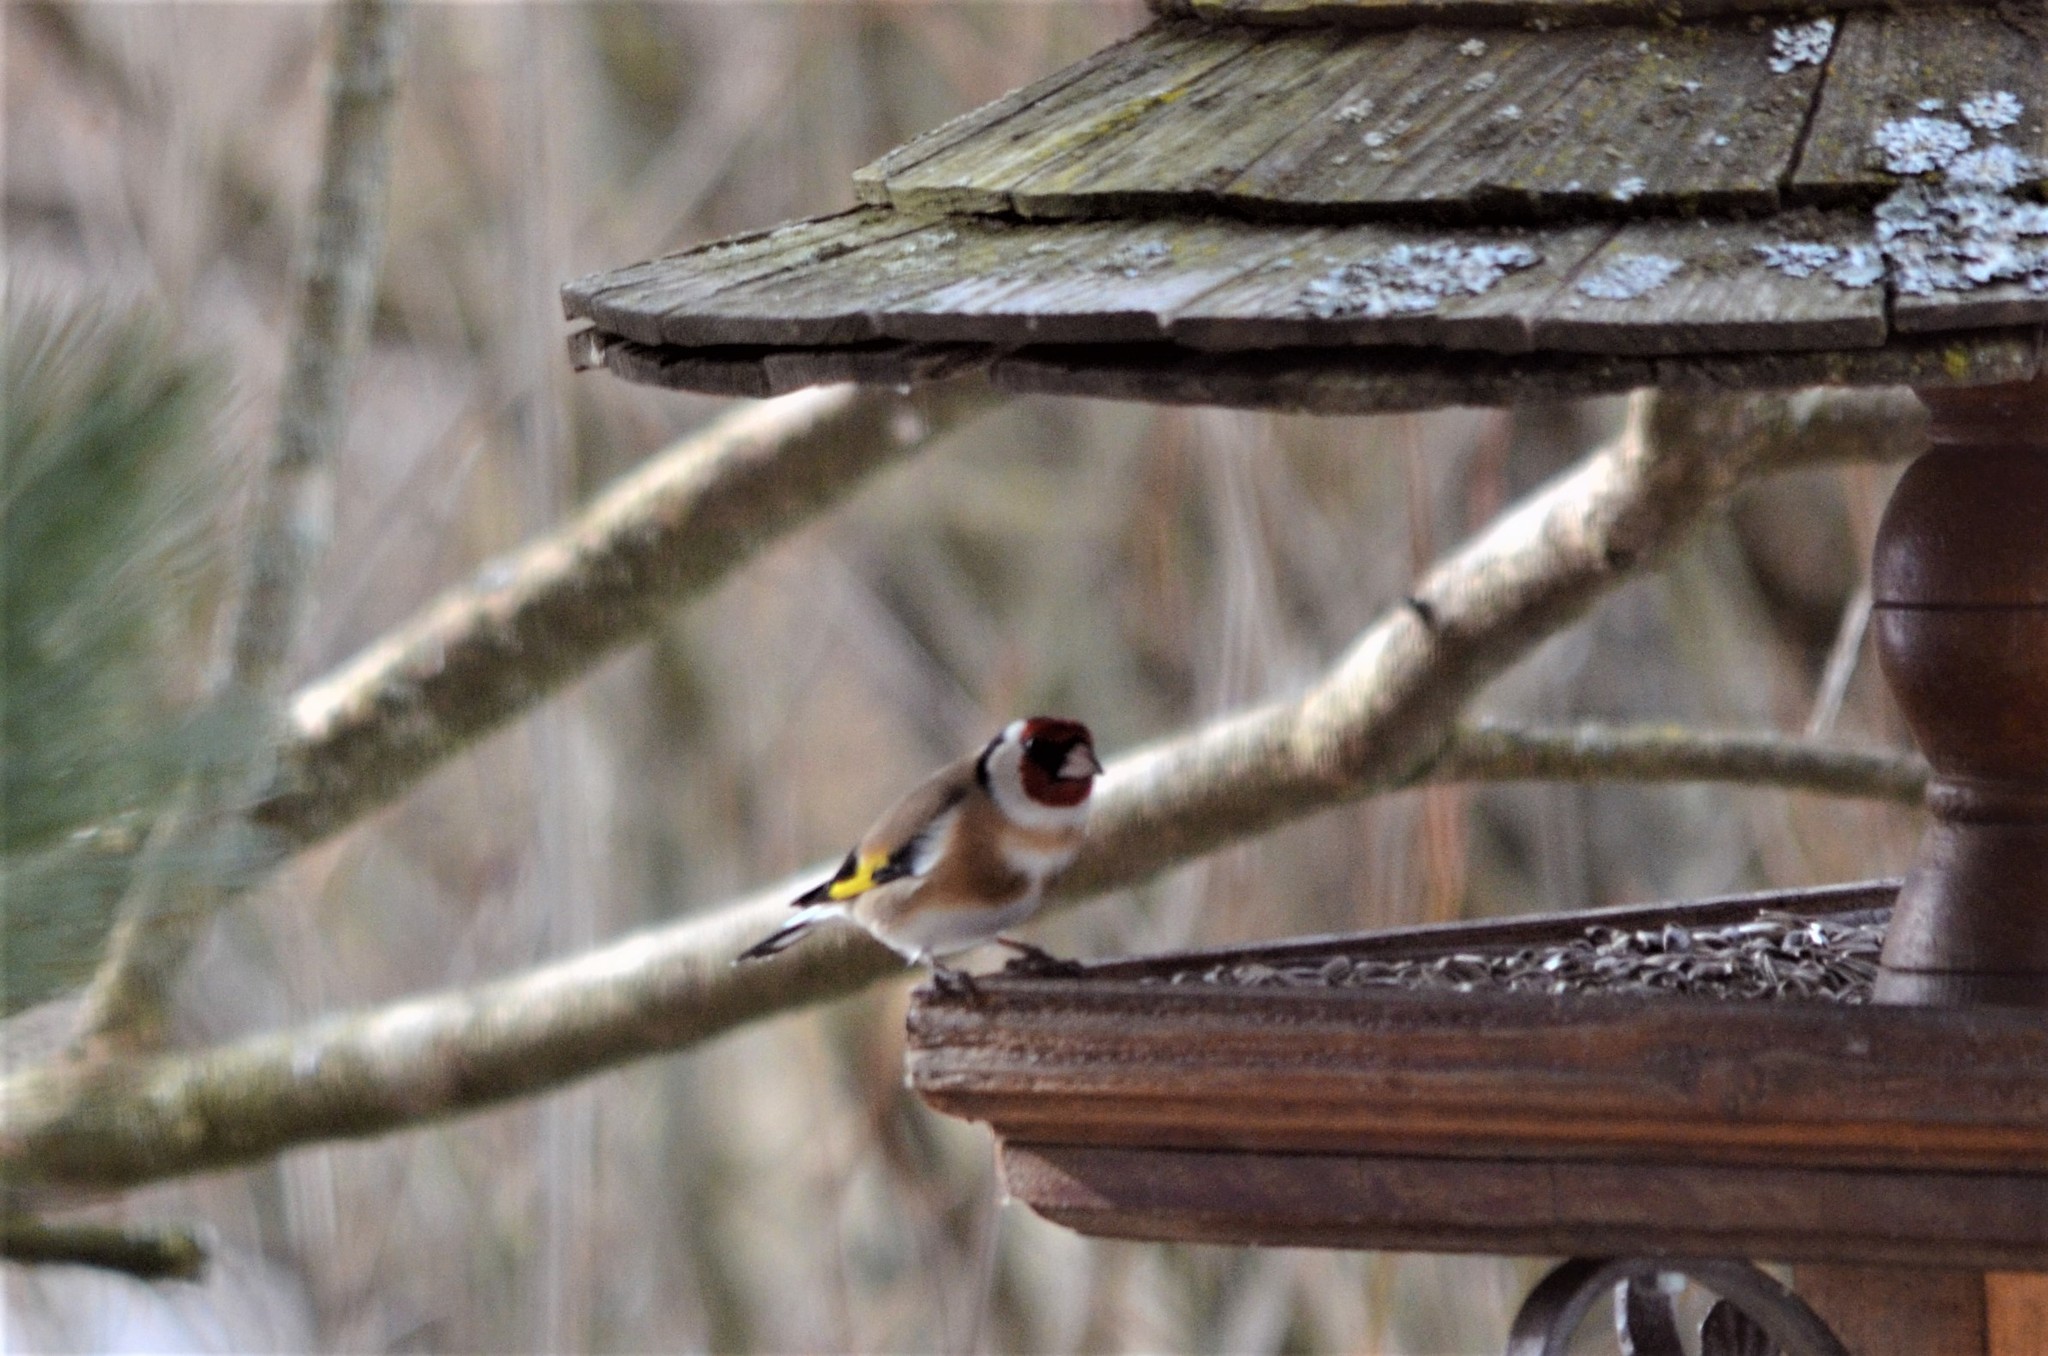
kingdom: Animalia
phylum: Chordata
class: Aves
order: Passeriformes
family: Fringillidae
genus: Carduelis
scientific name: Carduelis carduelis
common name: European goldfinch
